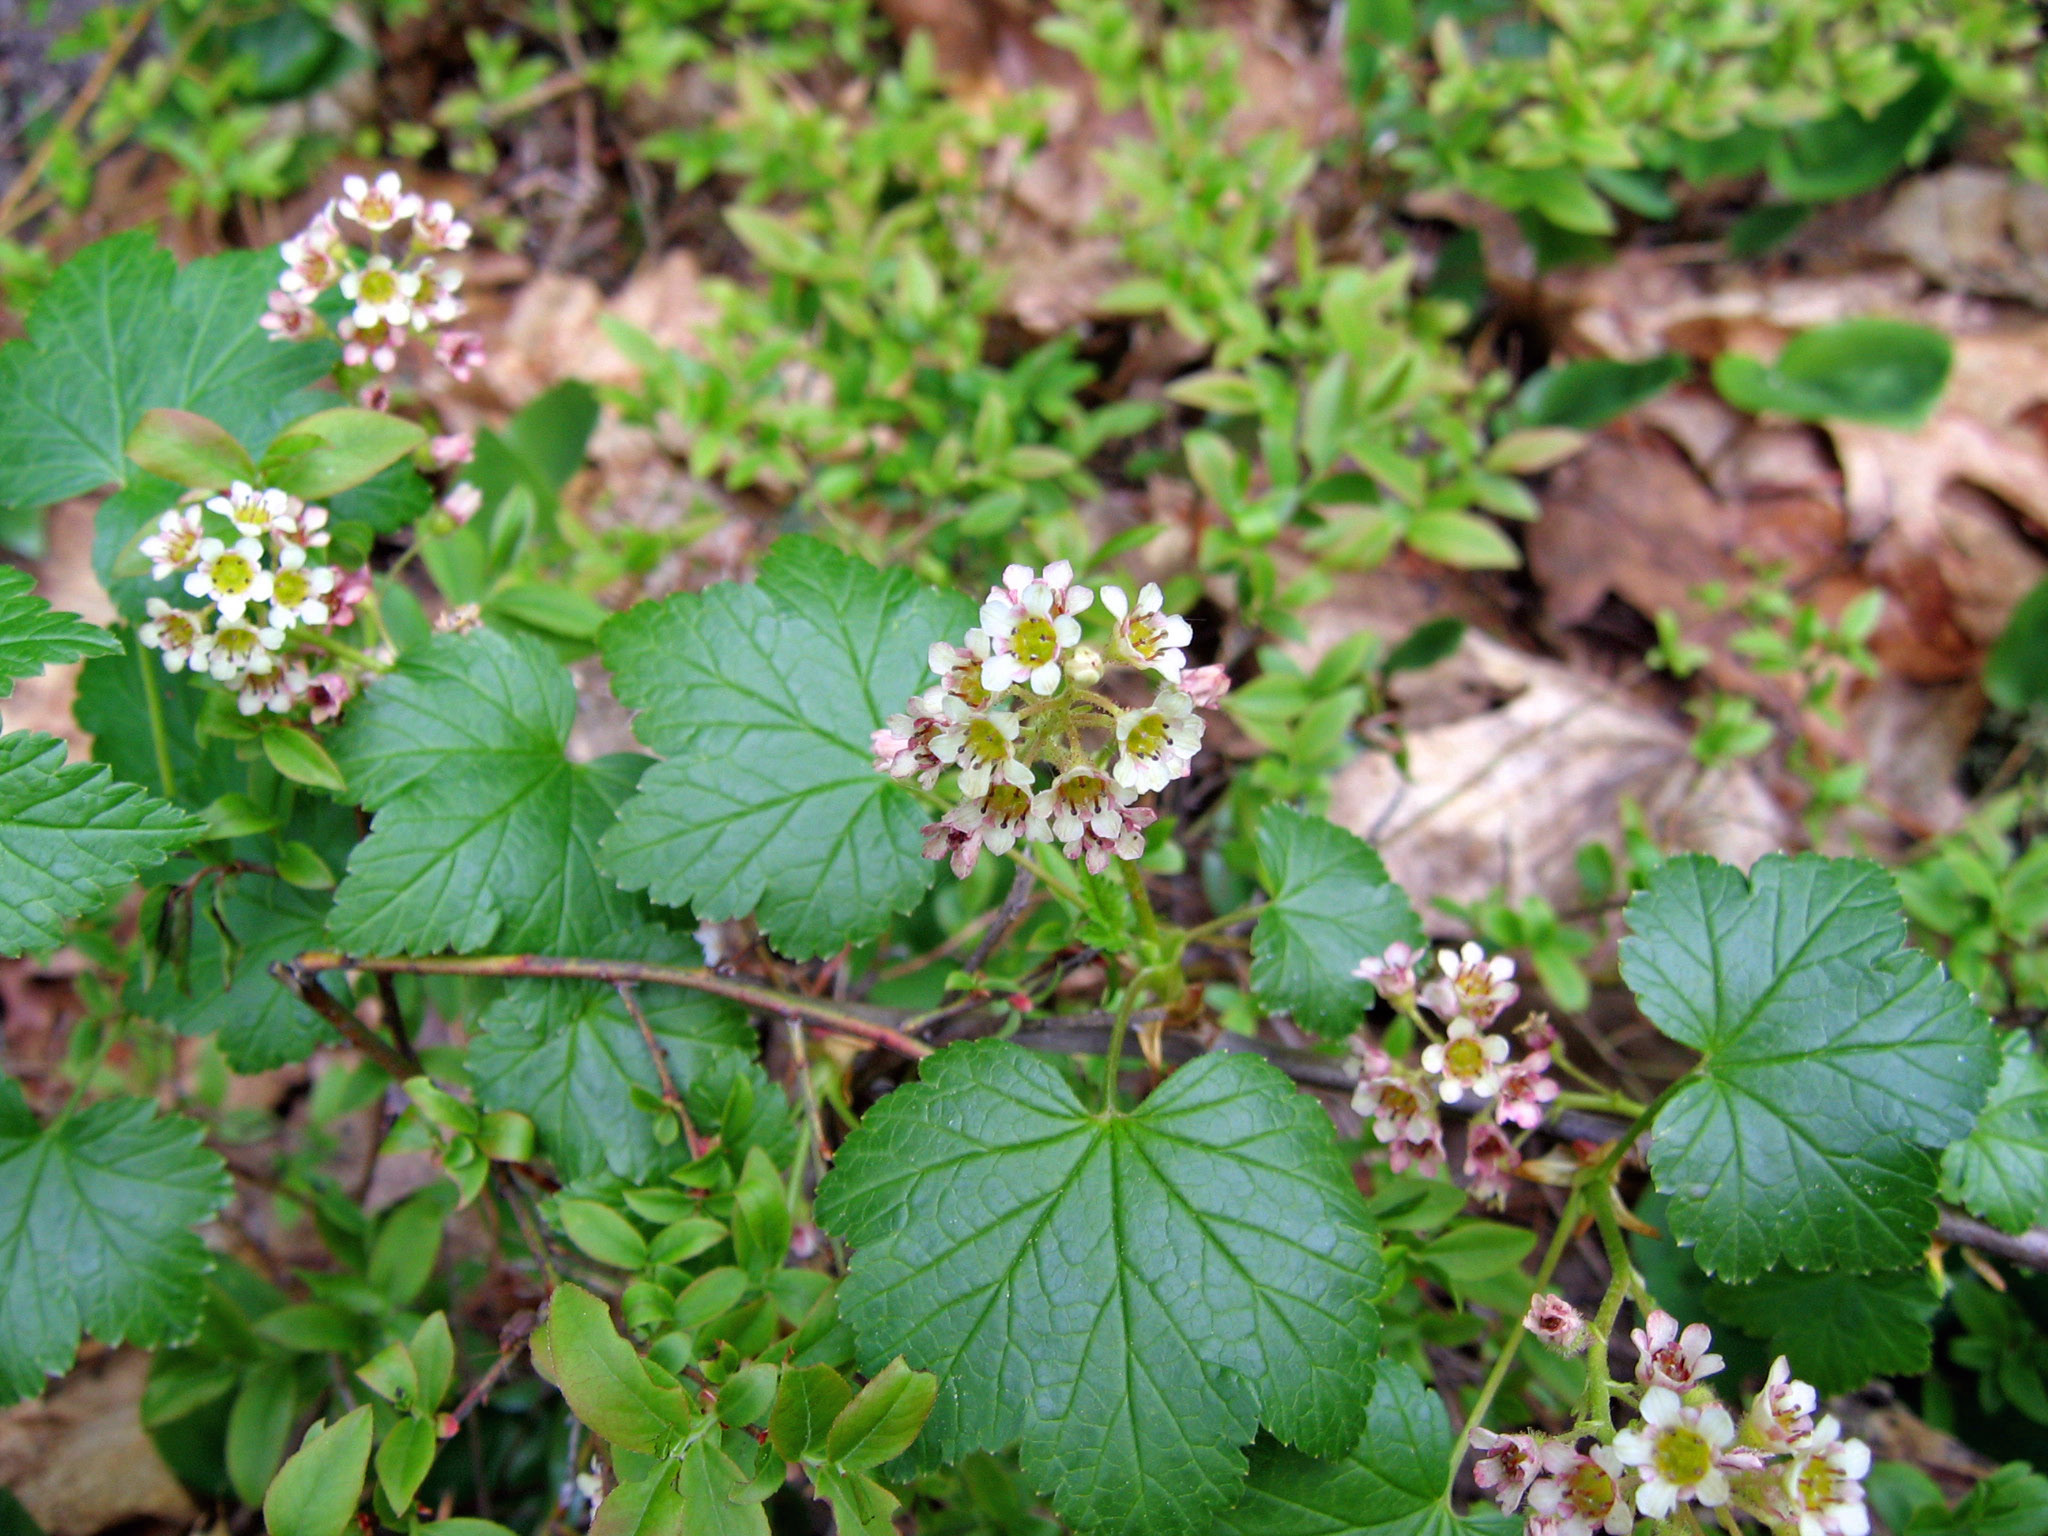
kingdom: Plantae
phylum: Tracheophyta
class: Magnoliopsida
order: Saxifragales
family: Grossulariaceae
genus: Ribes
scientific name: Ribes glandulosum
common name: Skunk currant
